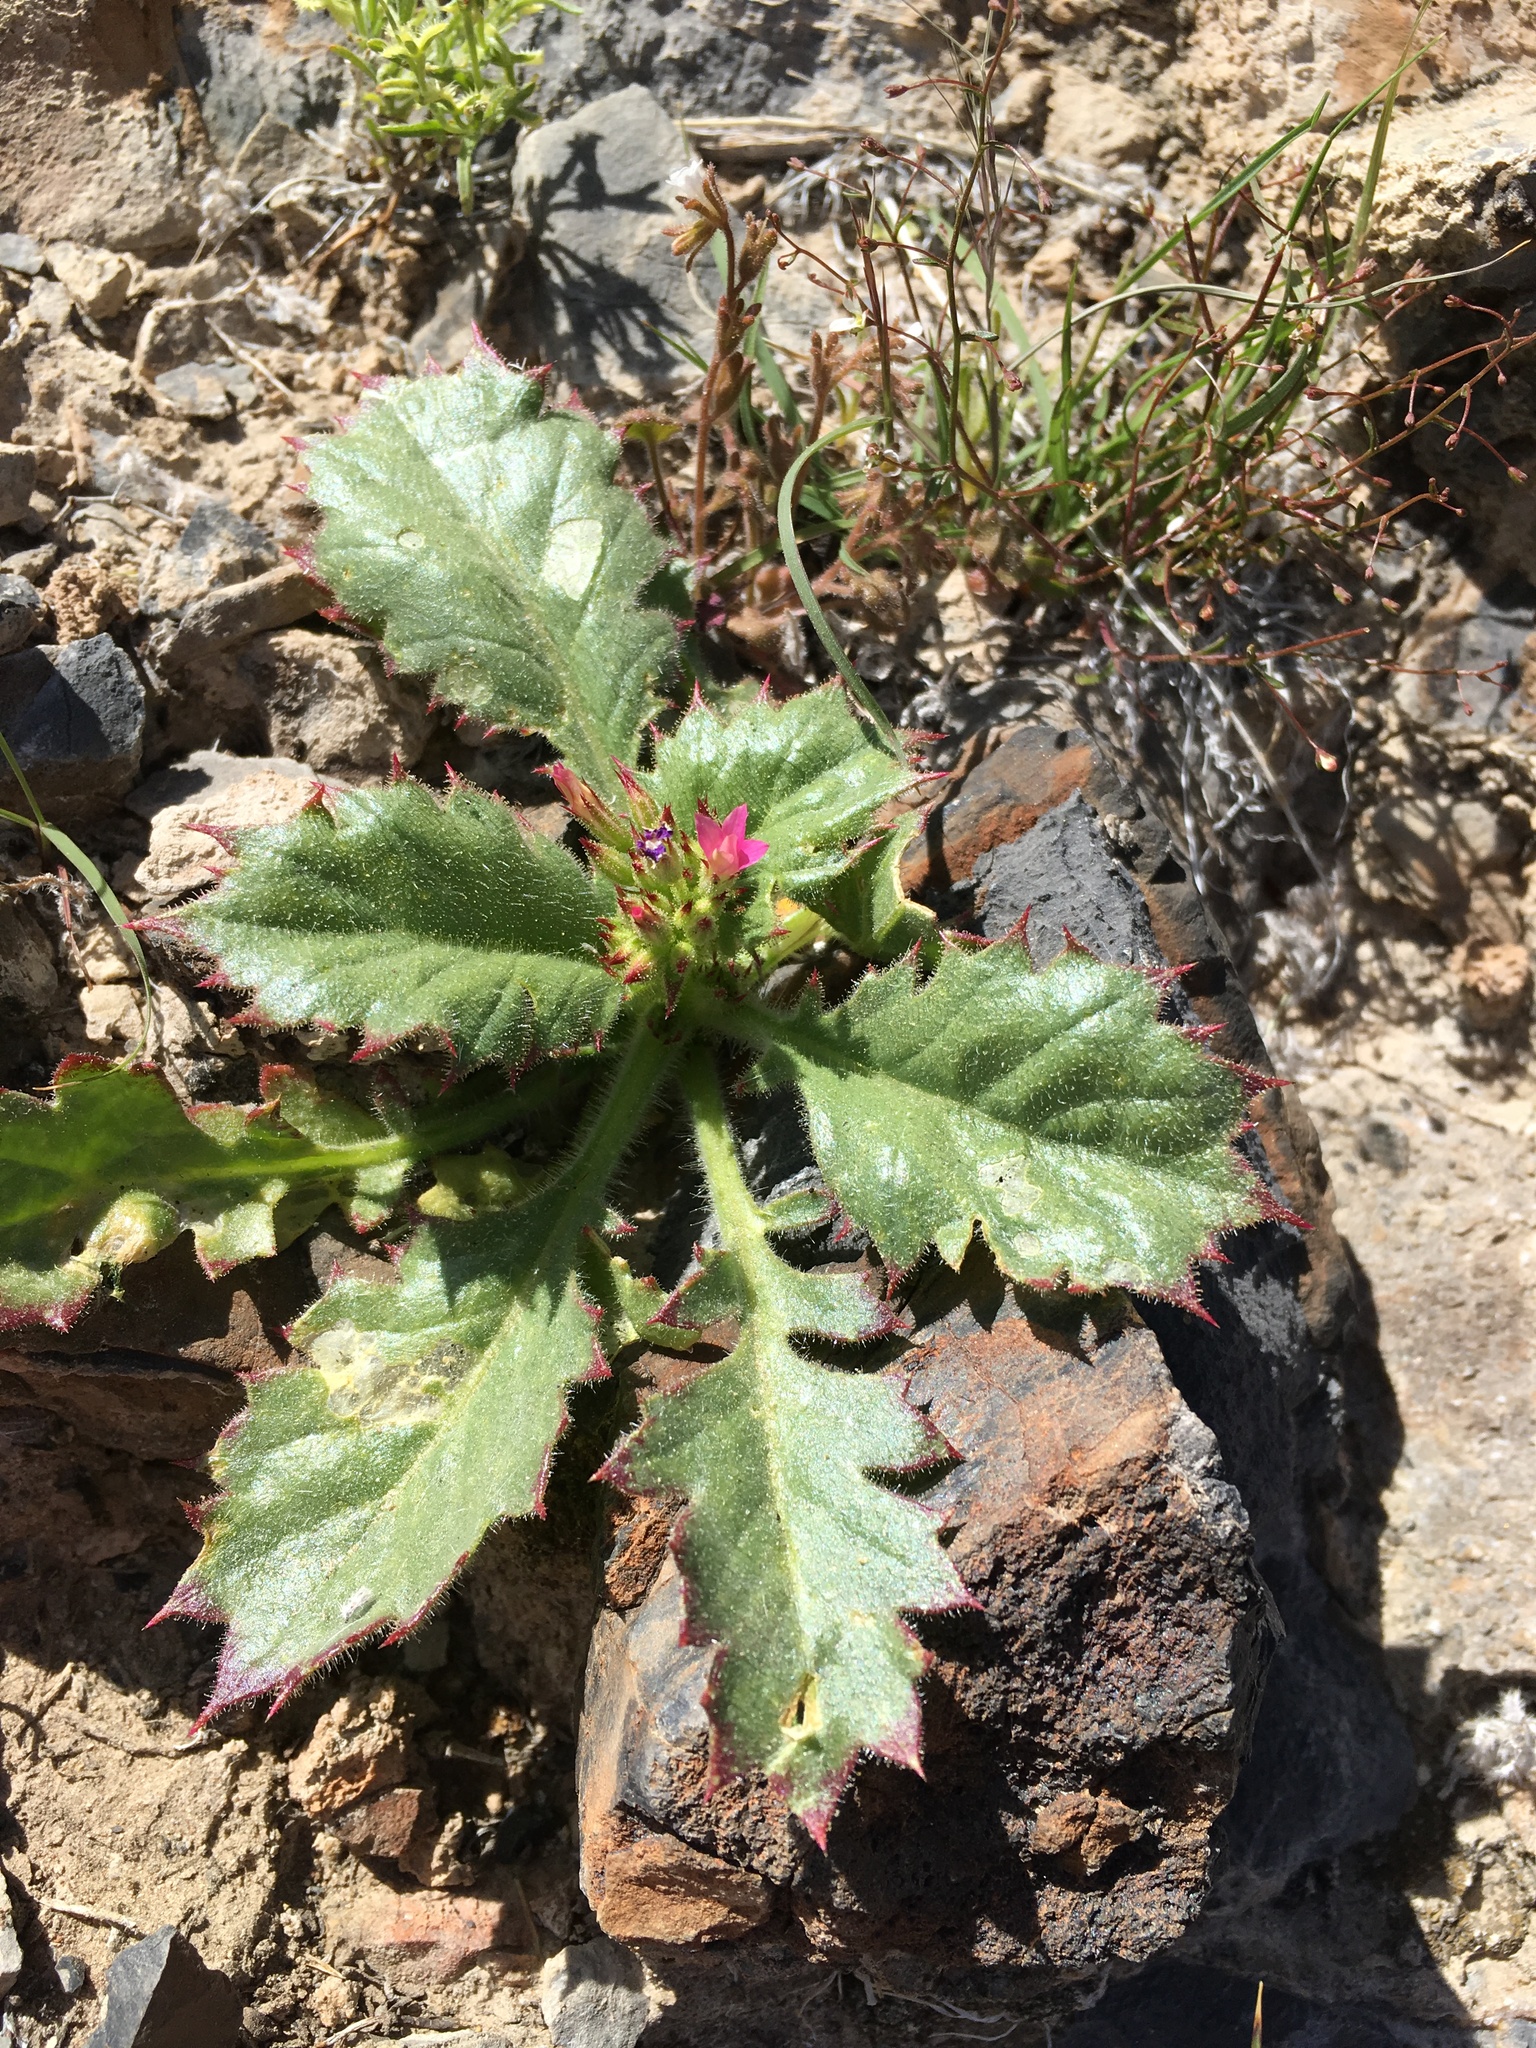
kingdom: Plantae
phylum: Tracheophyta
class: Magnoliopsida
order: Ericales
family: Polemoniaceae
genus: Aliciella
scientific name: Aliciella latifolia
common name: Broad-leaf gilia
